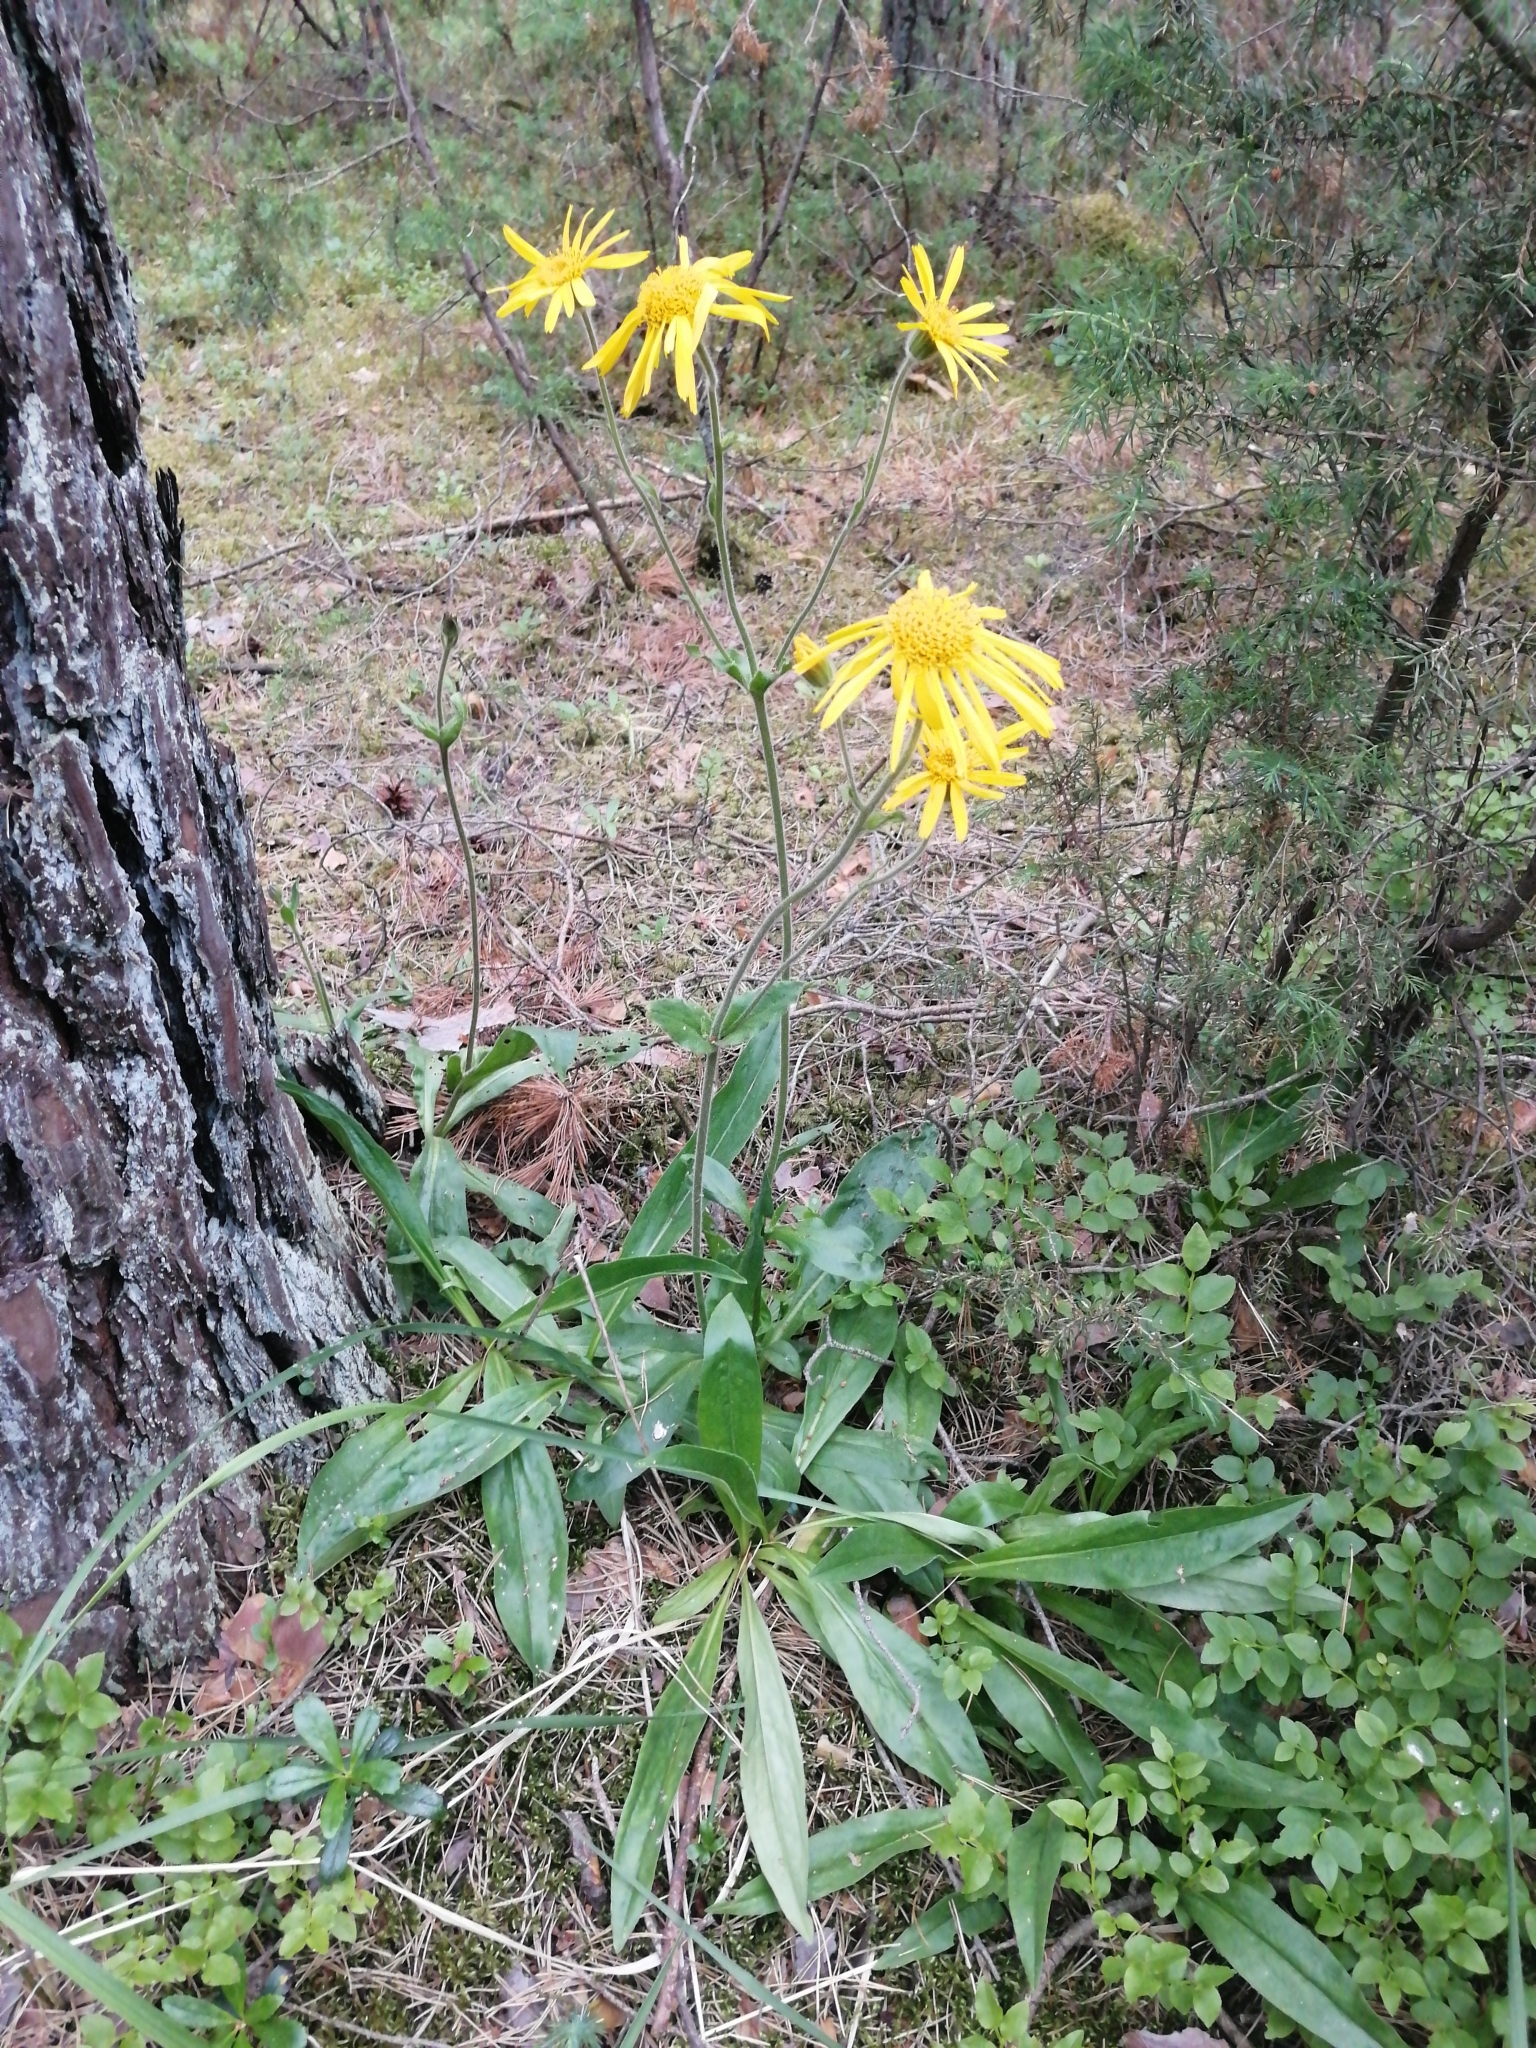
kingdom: Plantae
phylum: Tracheophyta
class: Magnoliopsida
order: Asterales
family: Asteraceae
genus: Arnica
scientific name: Arnica montana
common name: Leopard's bane
